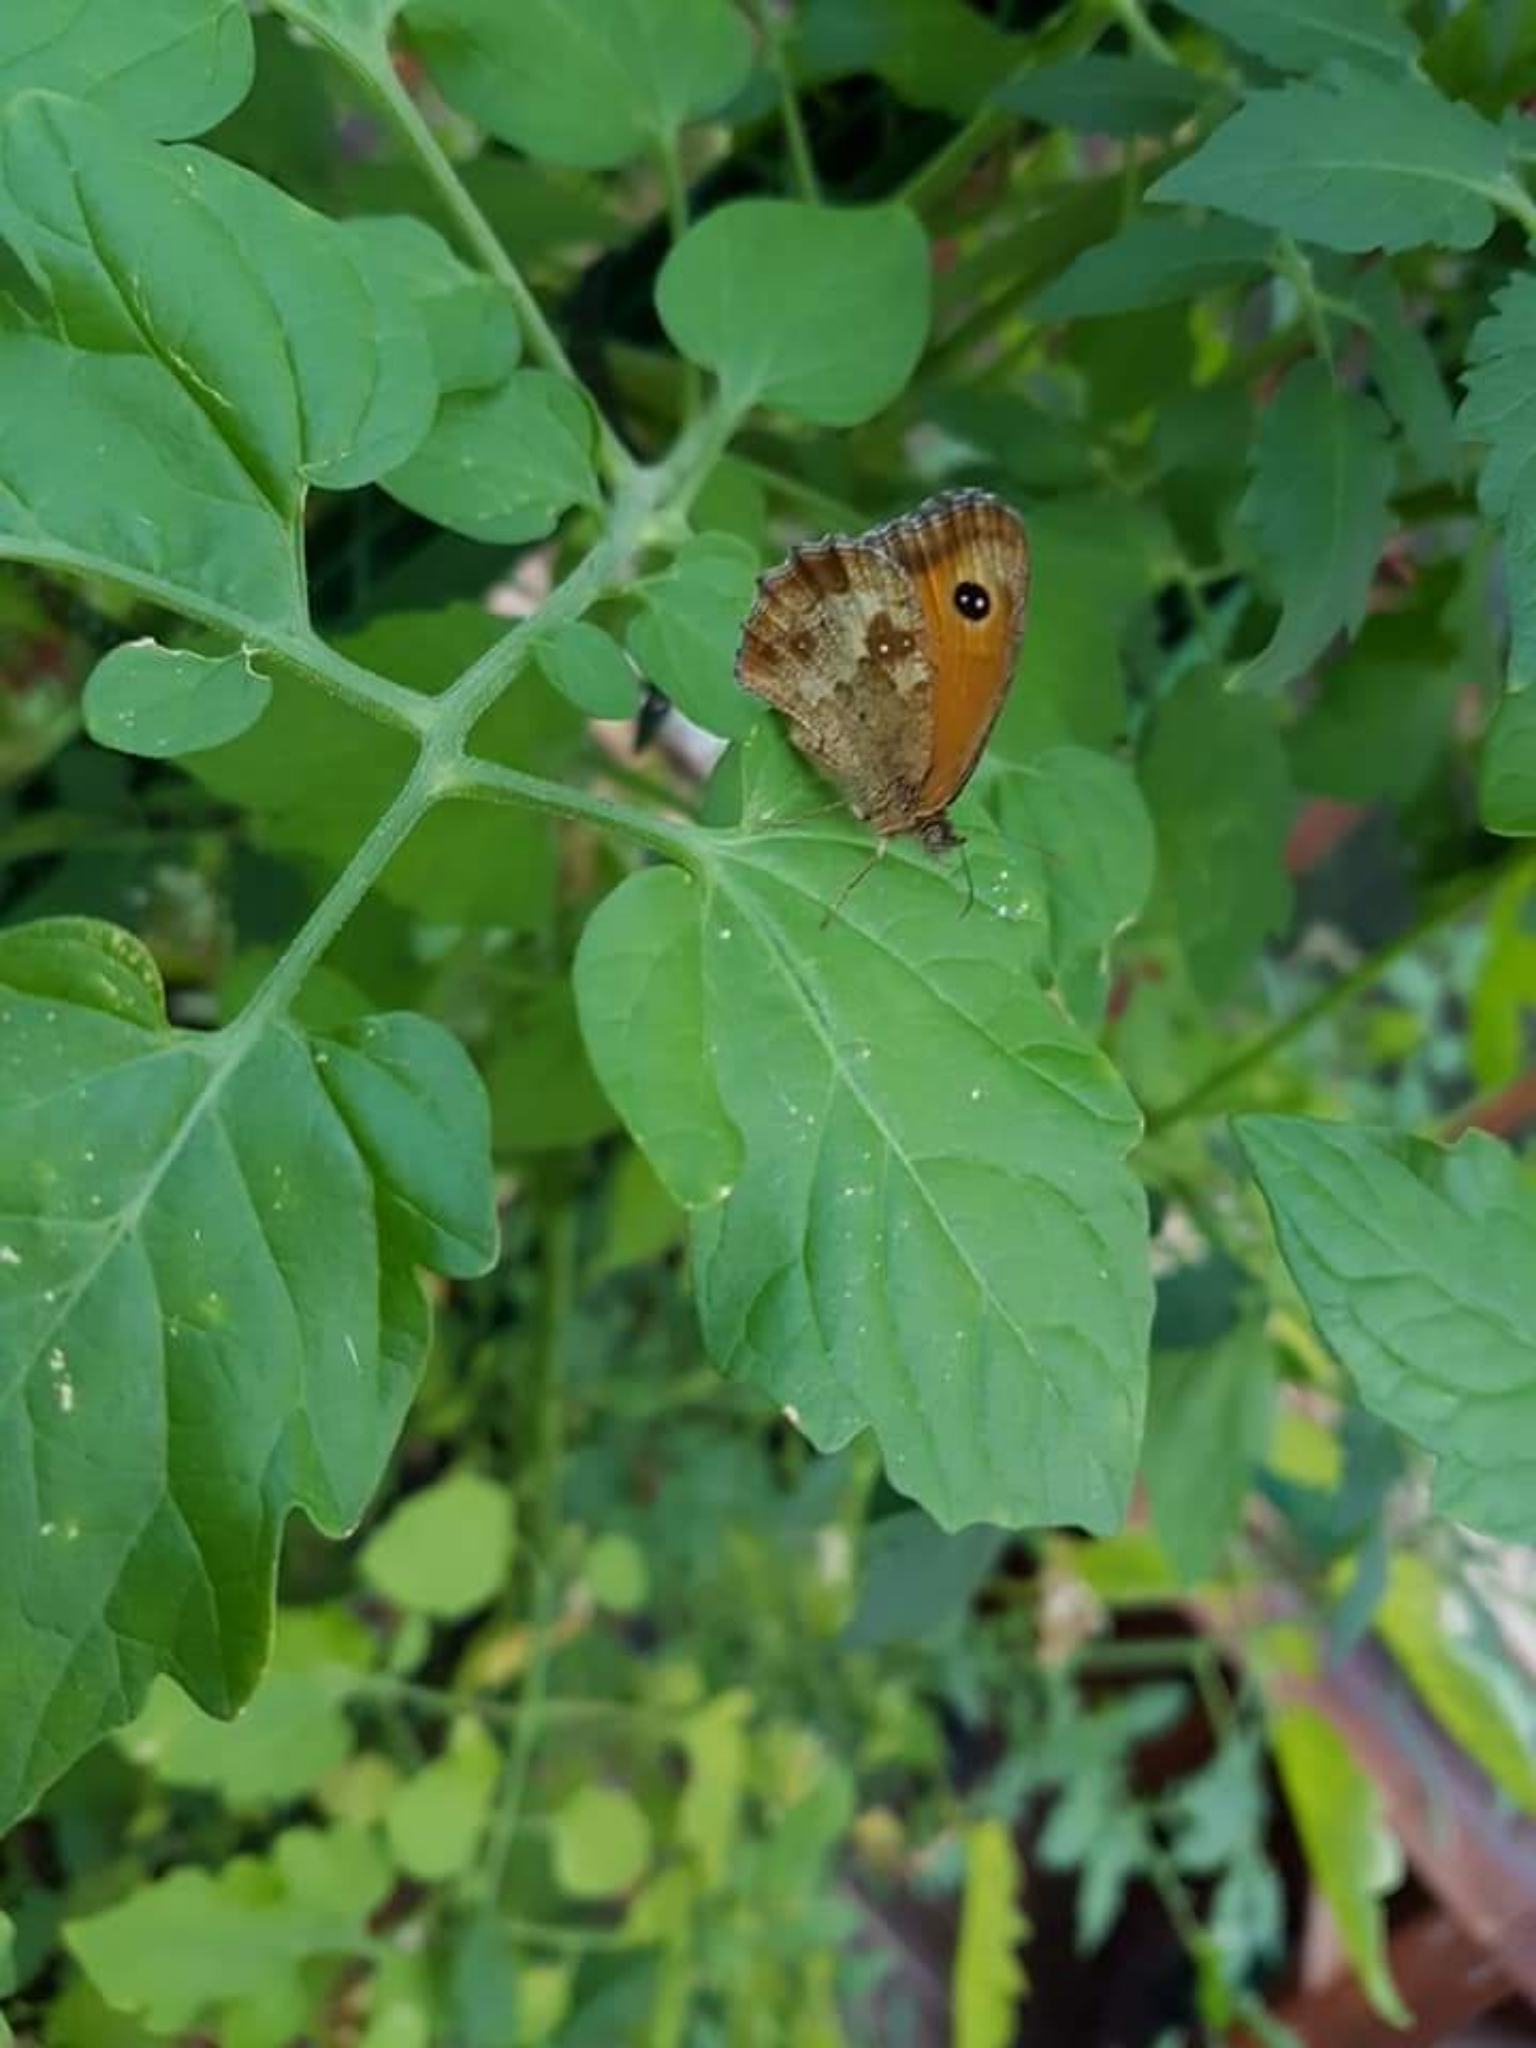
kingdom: Animalia
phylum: Arthropoda
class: Insecta
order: Lepidoptera
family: Nymphalidae
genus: Pyronia
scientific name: Pyronia tithonus
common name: Gatekeeper
